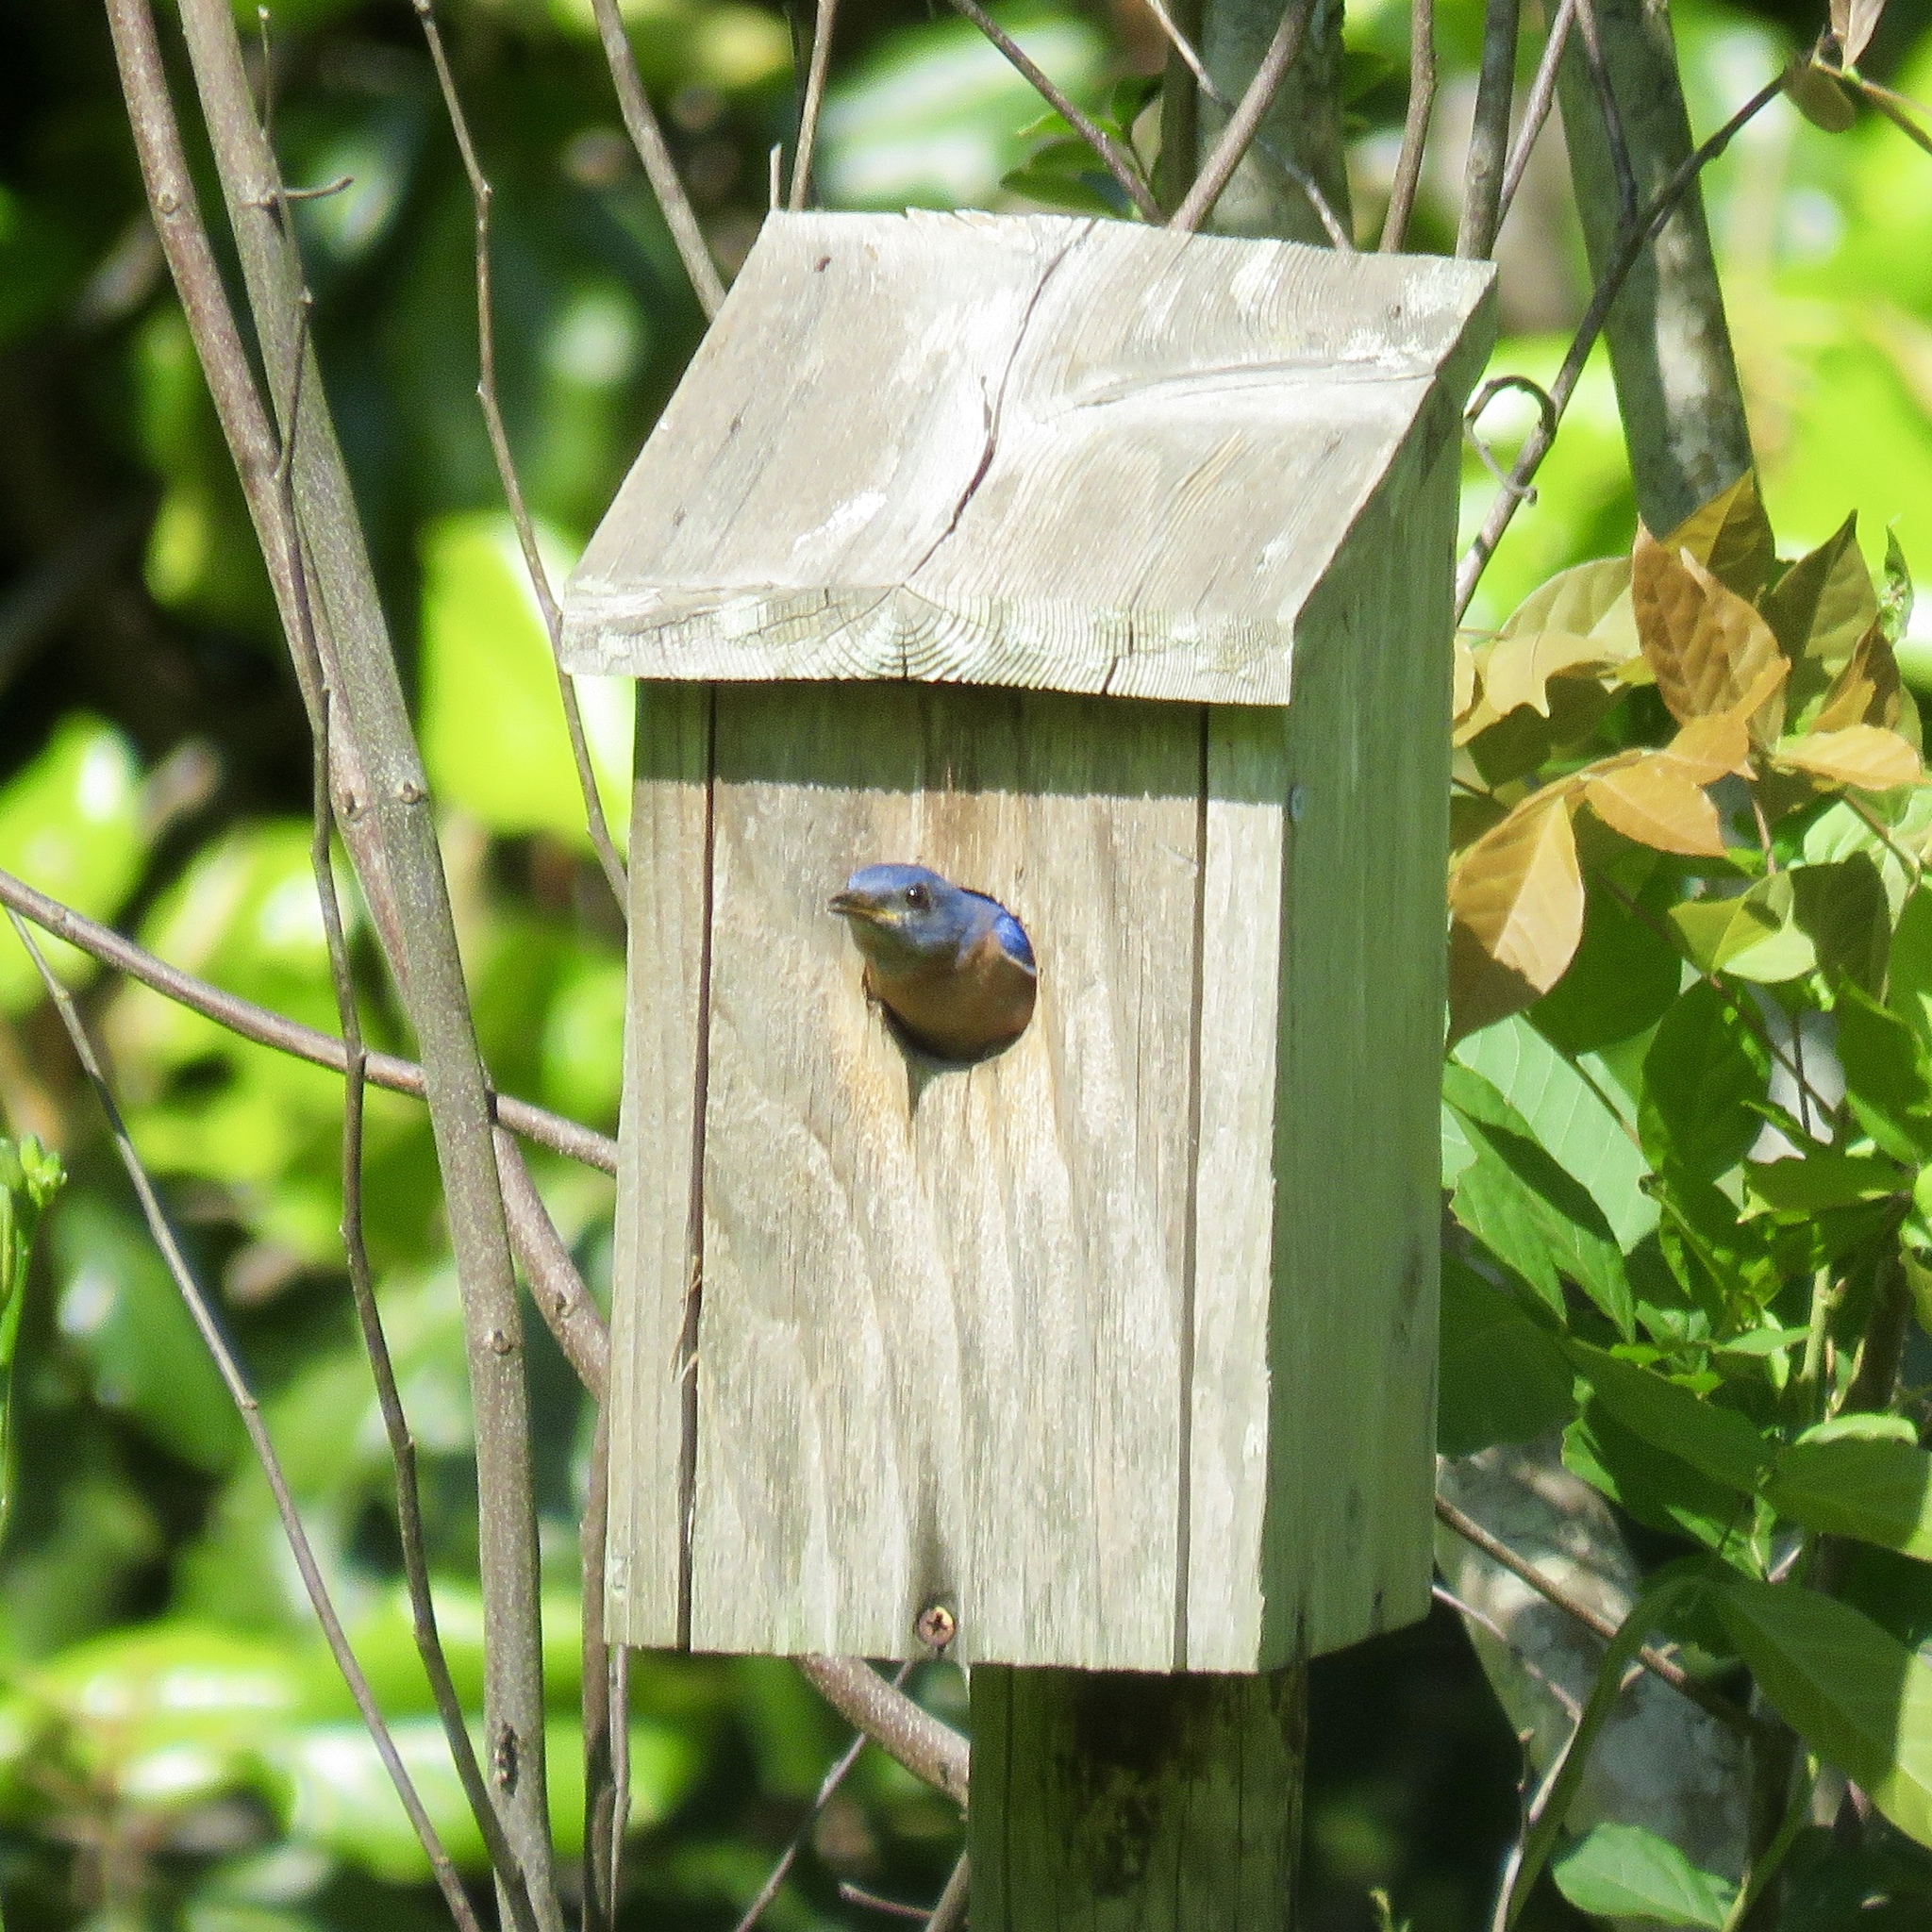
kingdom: Animalia
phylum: Chordata
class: Aves
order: Passeriformes
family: Turdidae
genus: Sialia
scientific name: Sialia sialis
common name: Eastern bluebird
